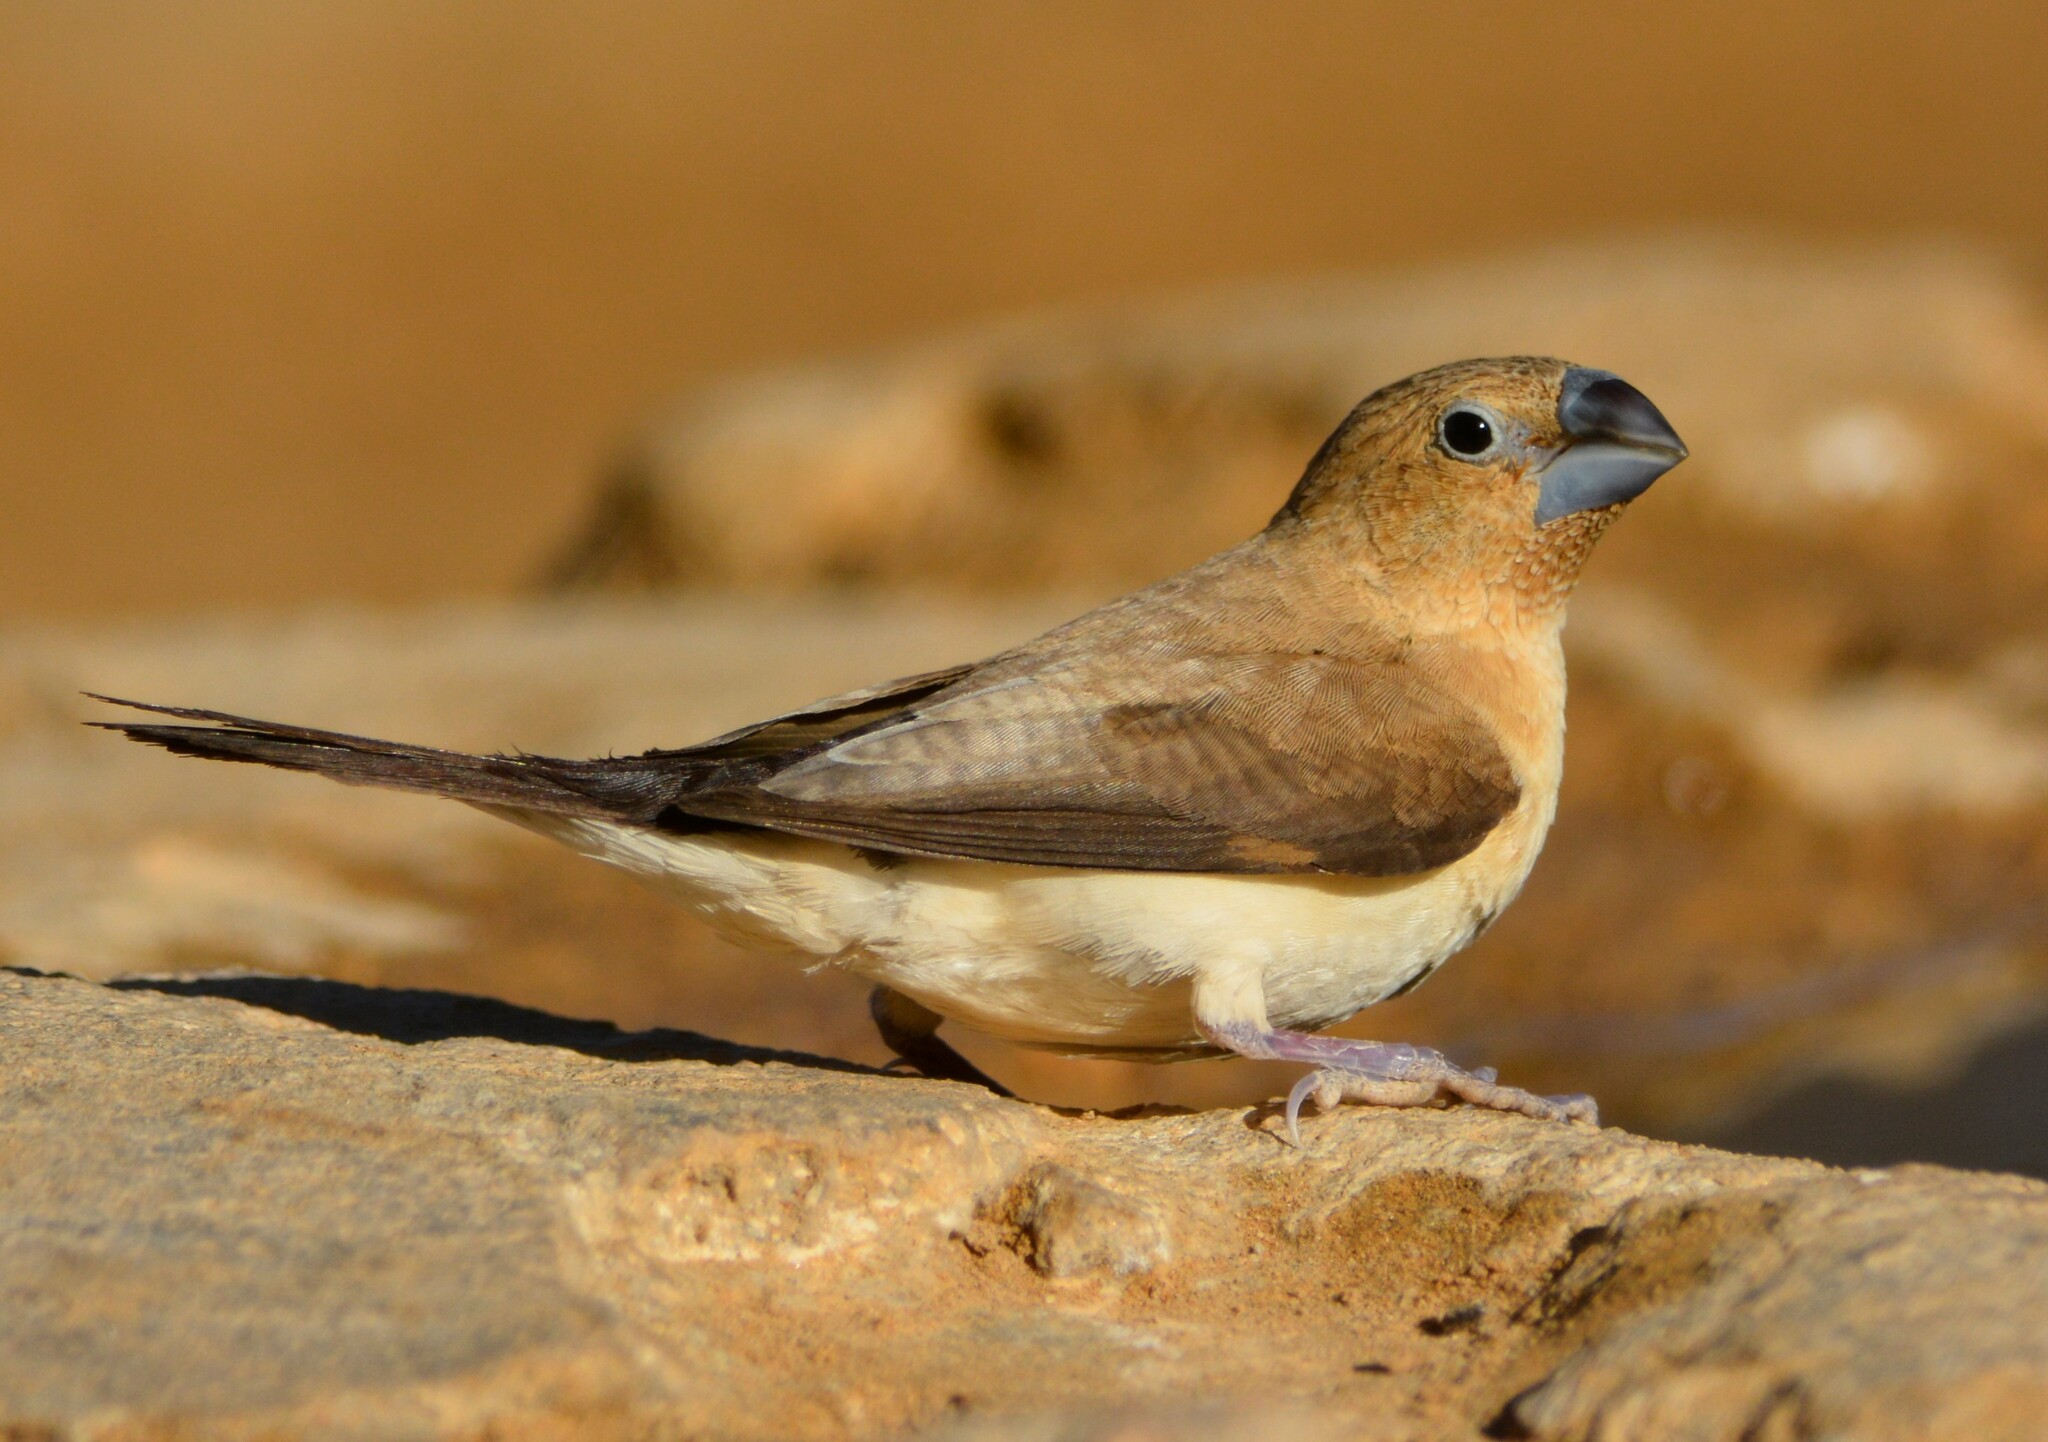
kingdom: Animalia
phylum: Chordata
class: Aves
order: Passeriformes
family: Estrildidae
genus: Euodice
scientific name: Euodice cantans
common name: African silverbill
